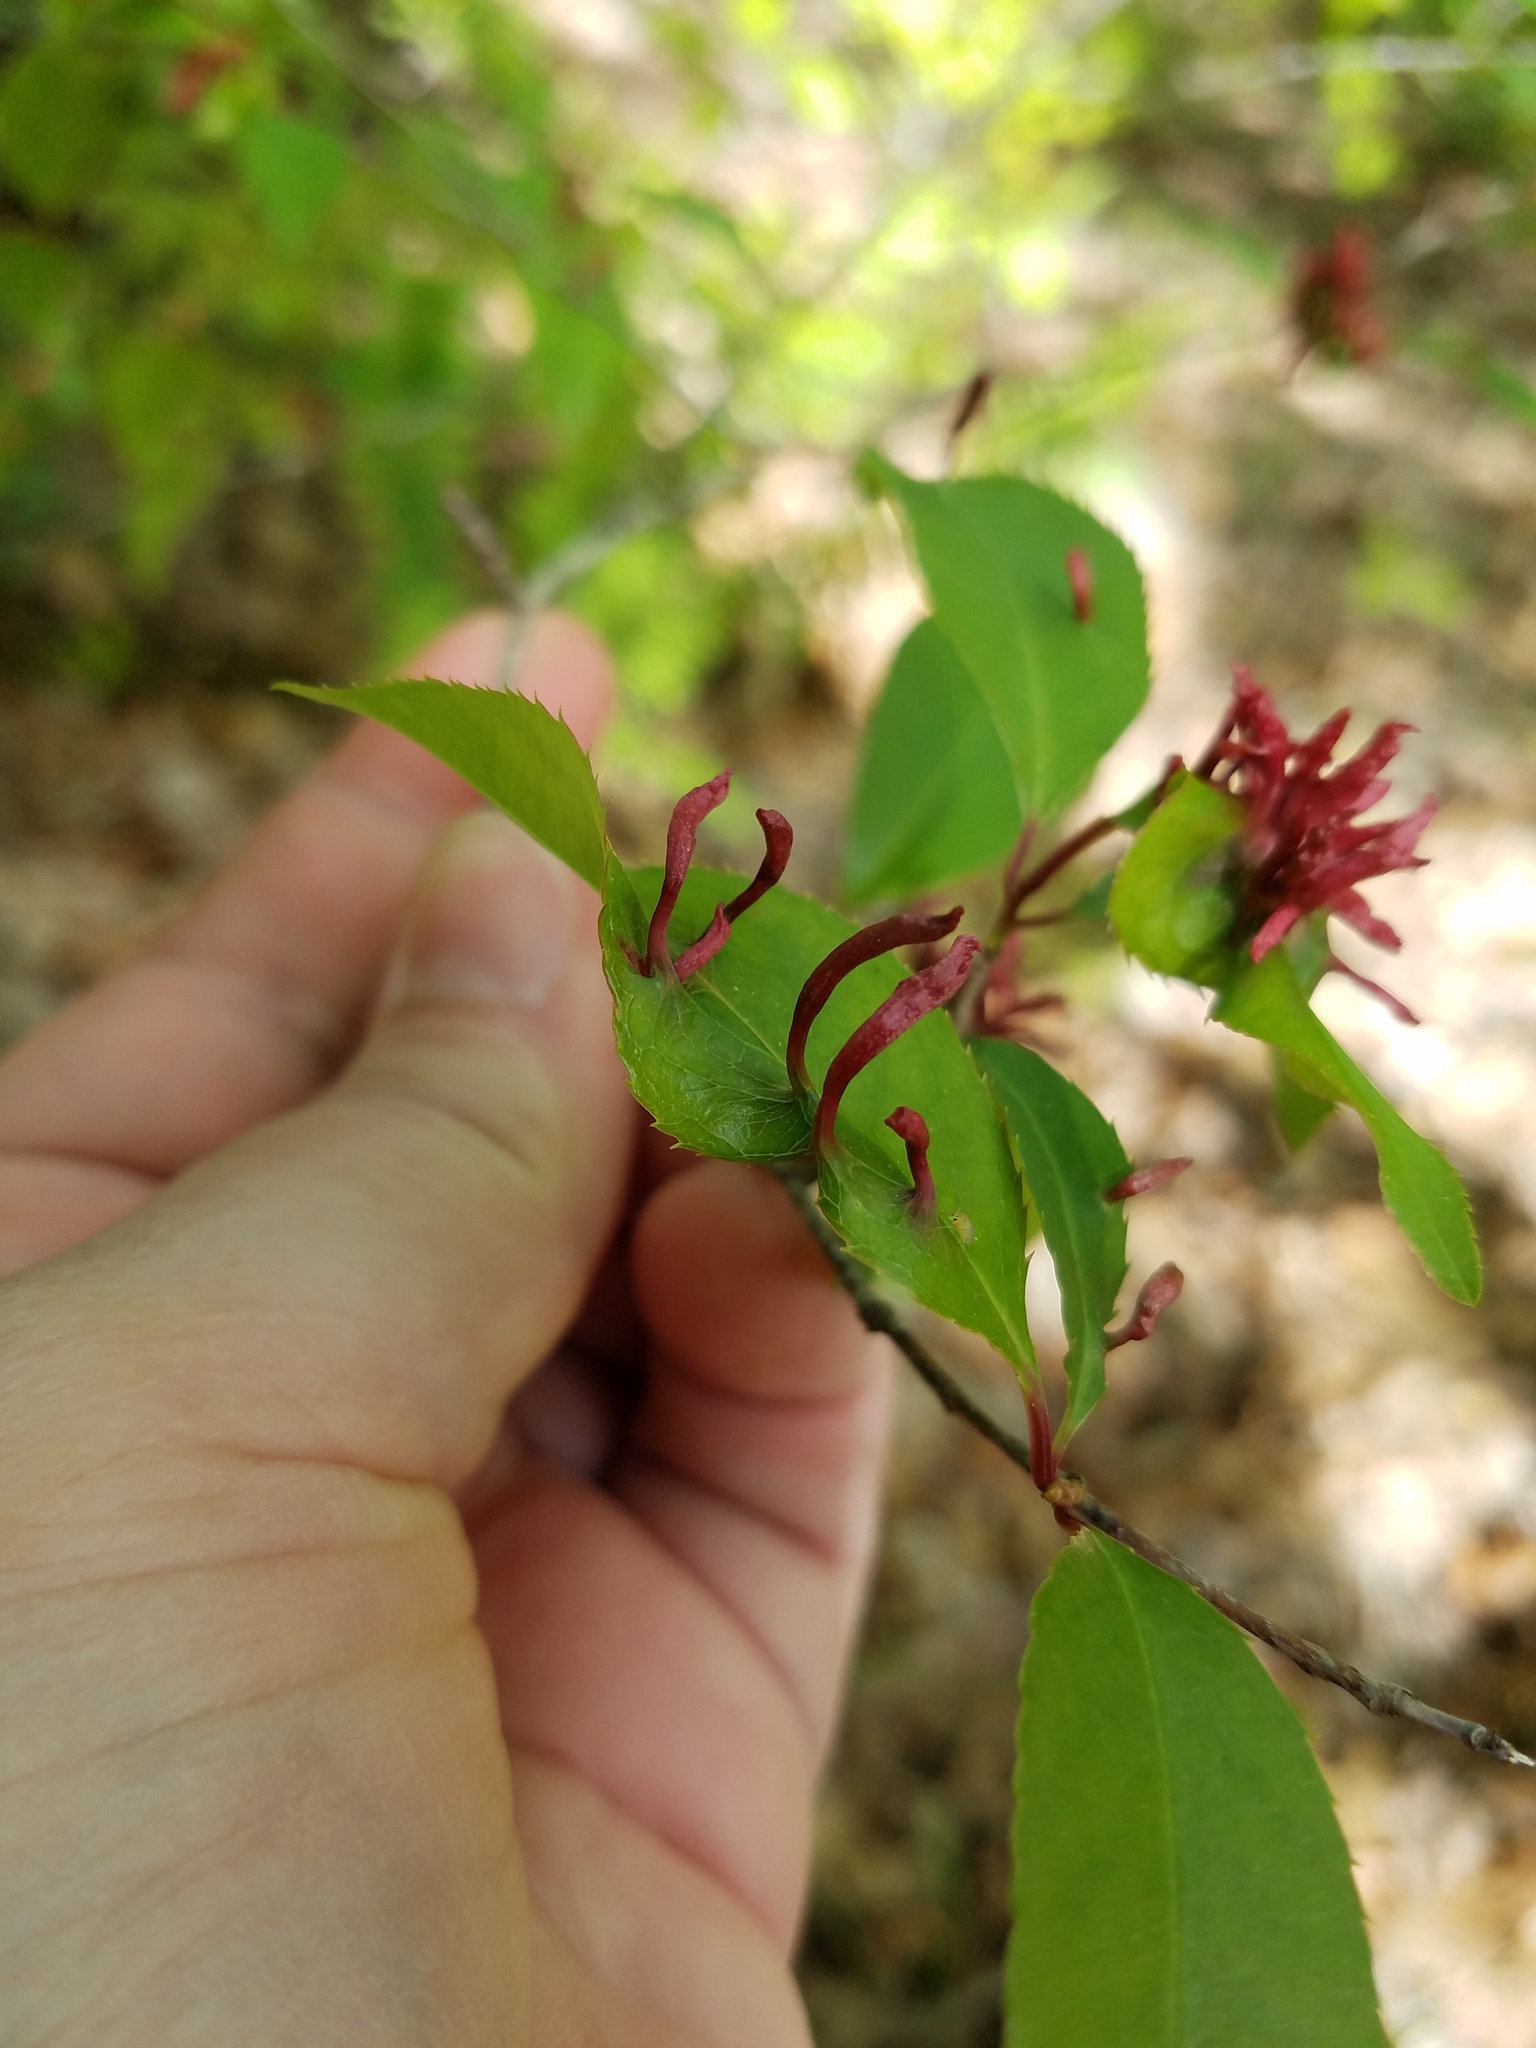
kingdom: Animalia
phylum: Arthropoda
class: Arachnida
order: Trombidiformes
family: Eriophyidae
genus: Eriophyes
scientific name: Eriophyes
